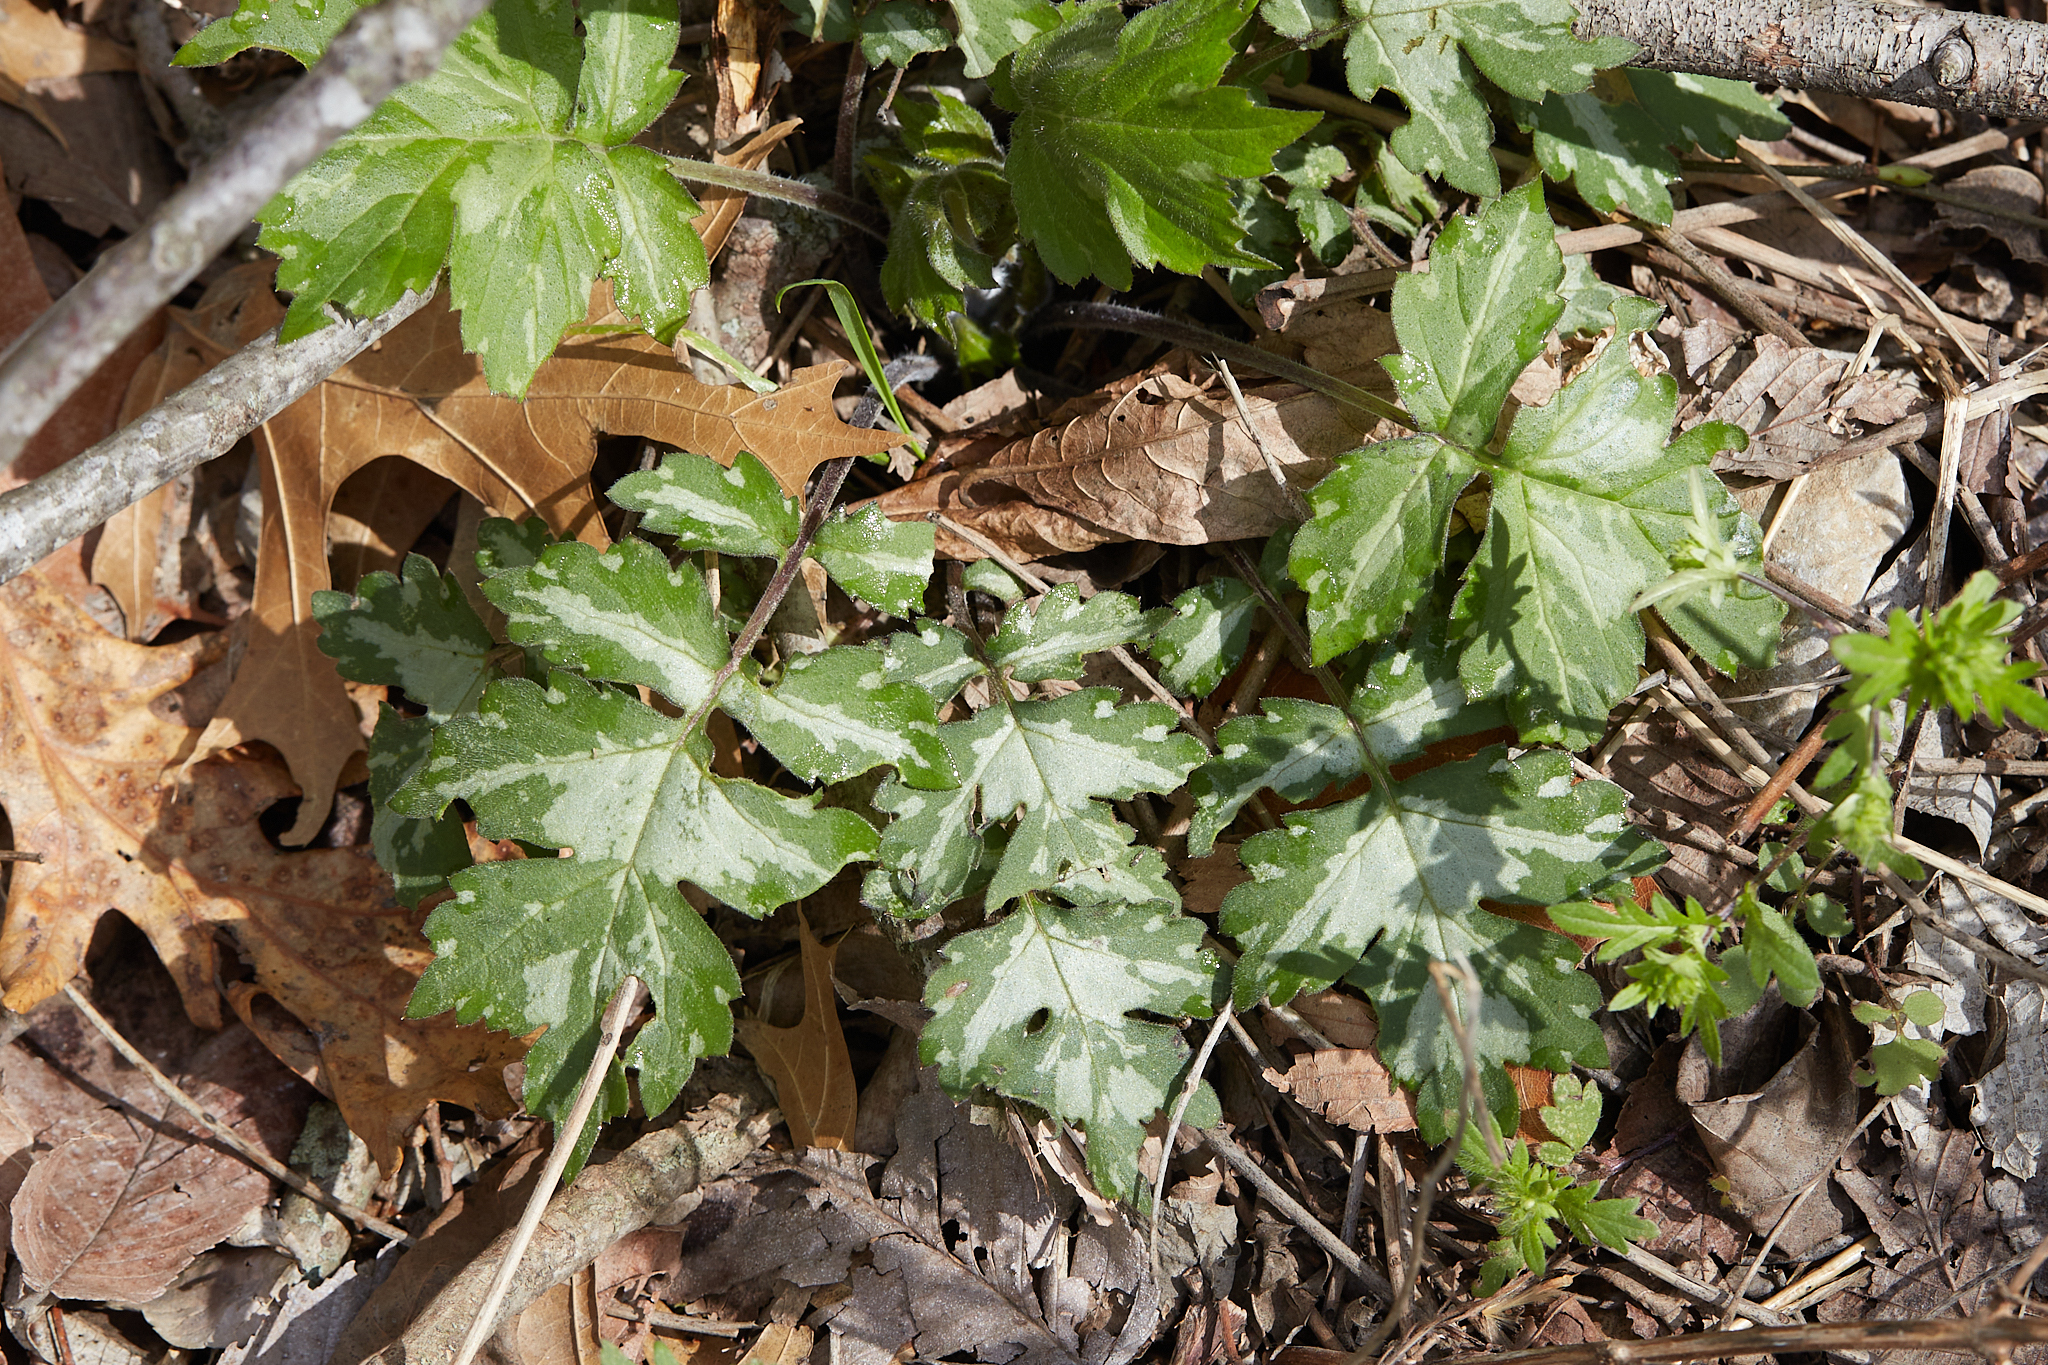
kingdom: Plantae
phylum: Tracheophyta
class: Magnoliopsida
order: Boraginales
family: Hydrophyllaceae
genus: Hydrophyllum
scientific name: Hydrophyllum appendiculatum
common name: Appendaged waterleaf
